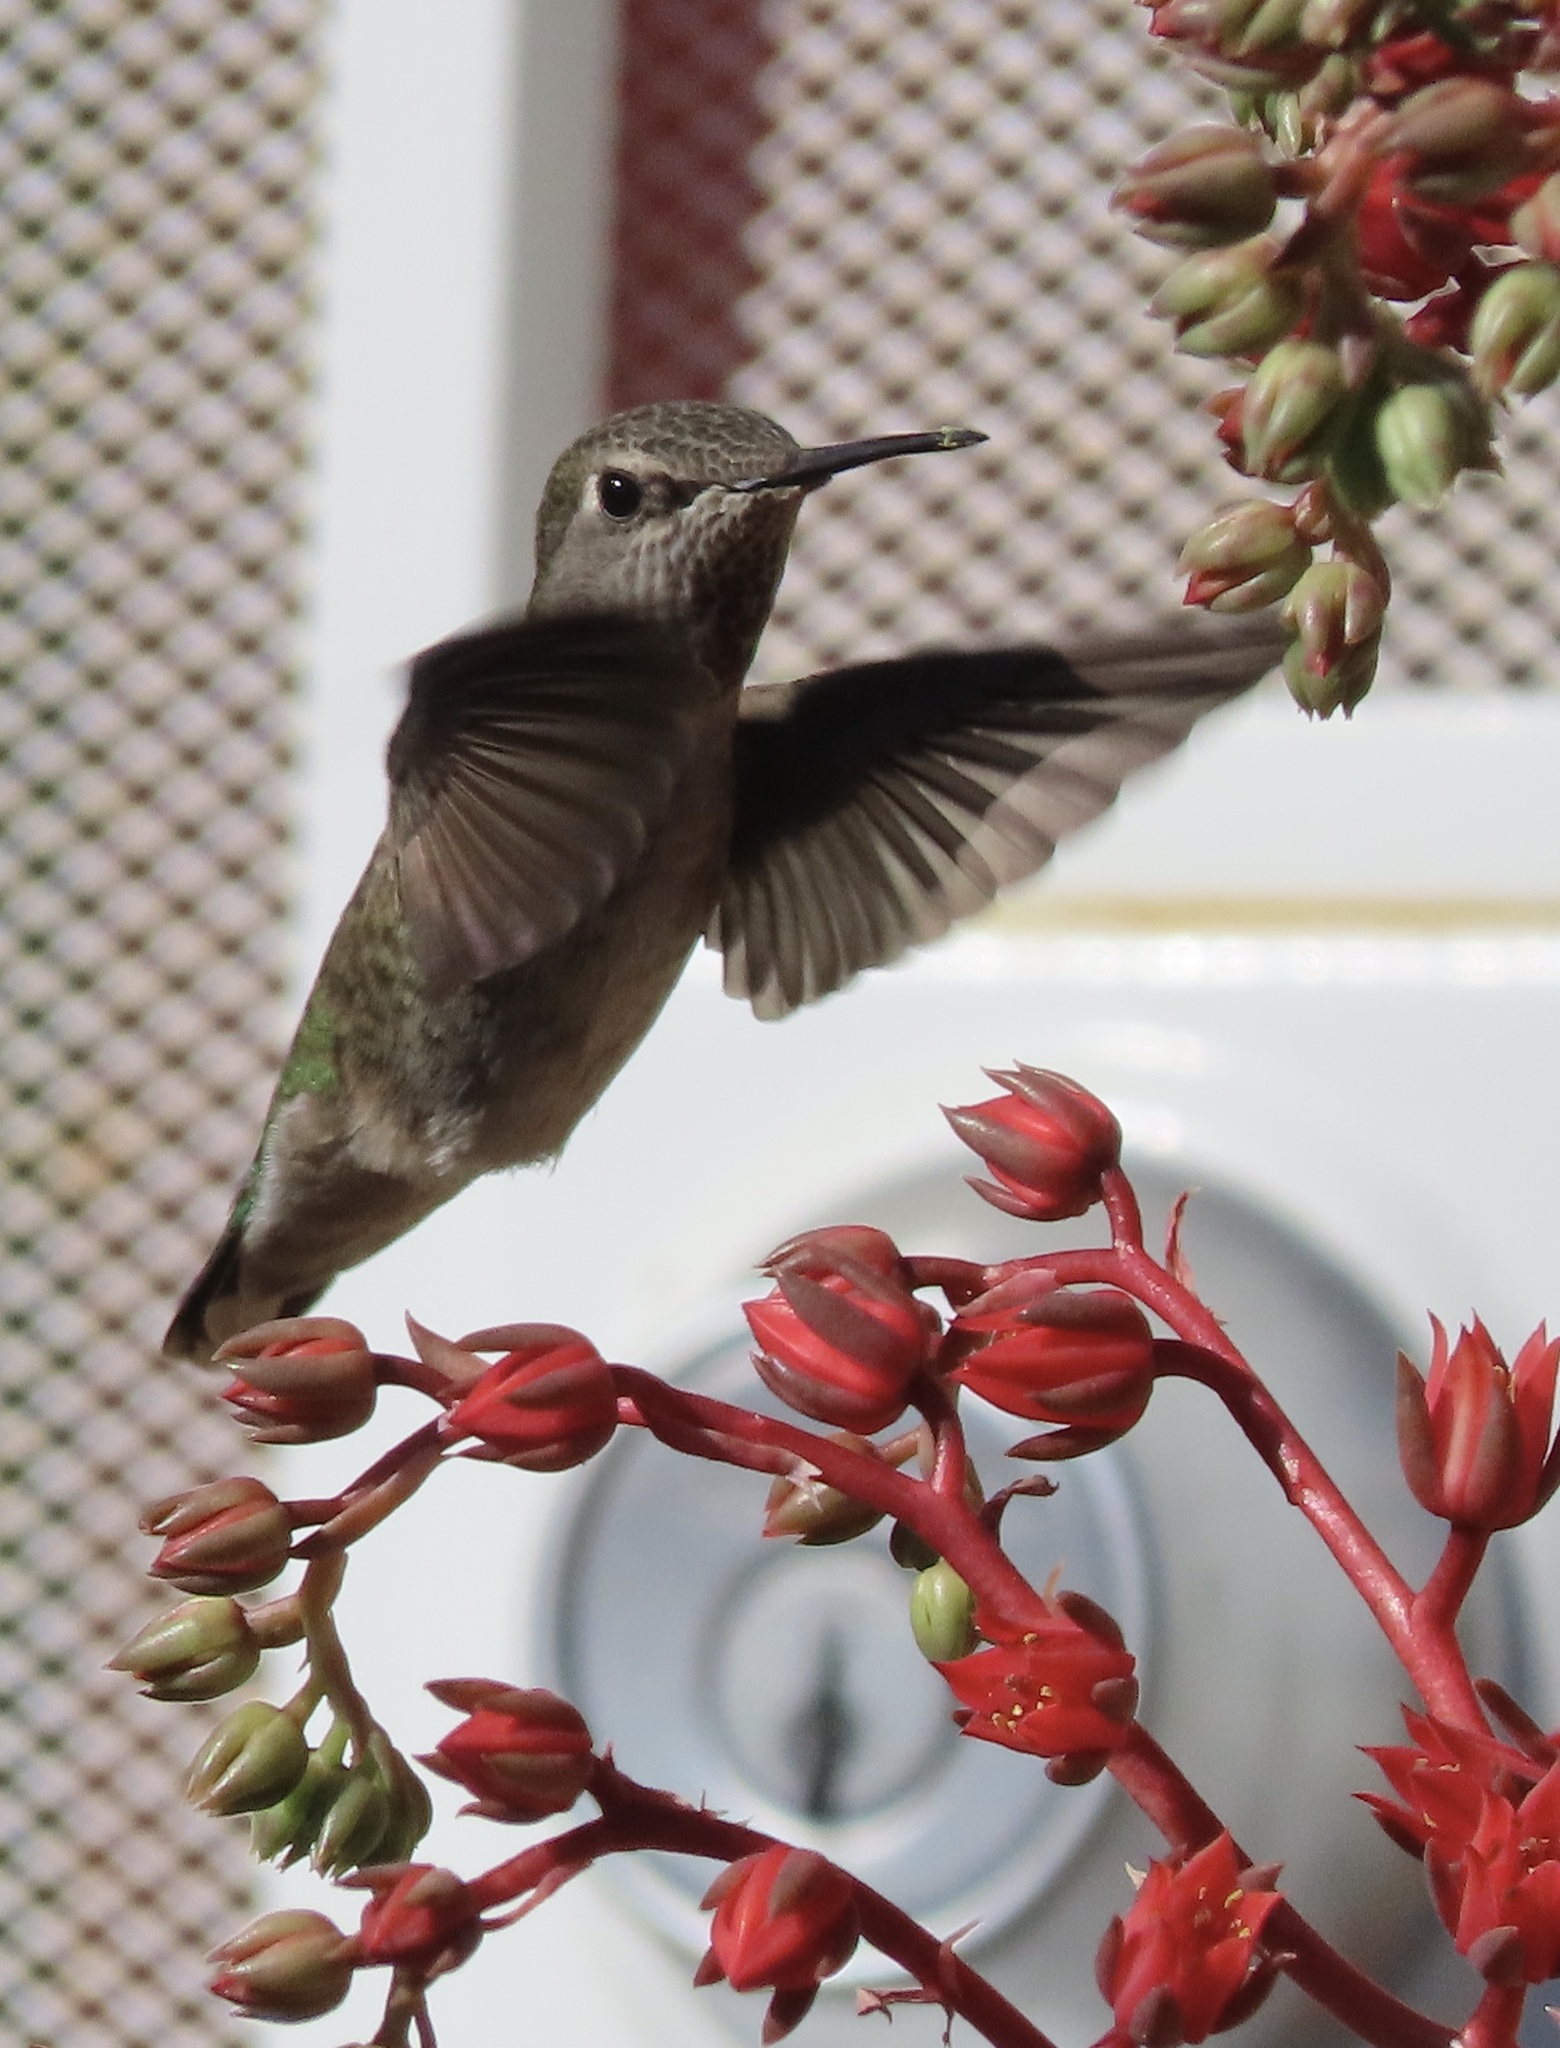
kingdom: Animalia
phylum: Chordata
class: Aves
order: Apodiformes
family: Trochilidae
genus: Calypte
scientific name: Calypte anna
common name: Anna's hummingbird
